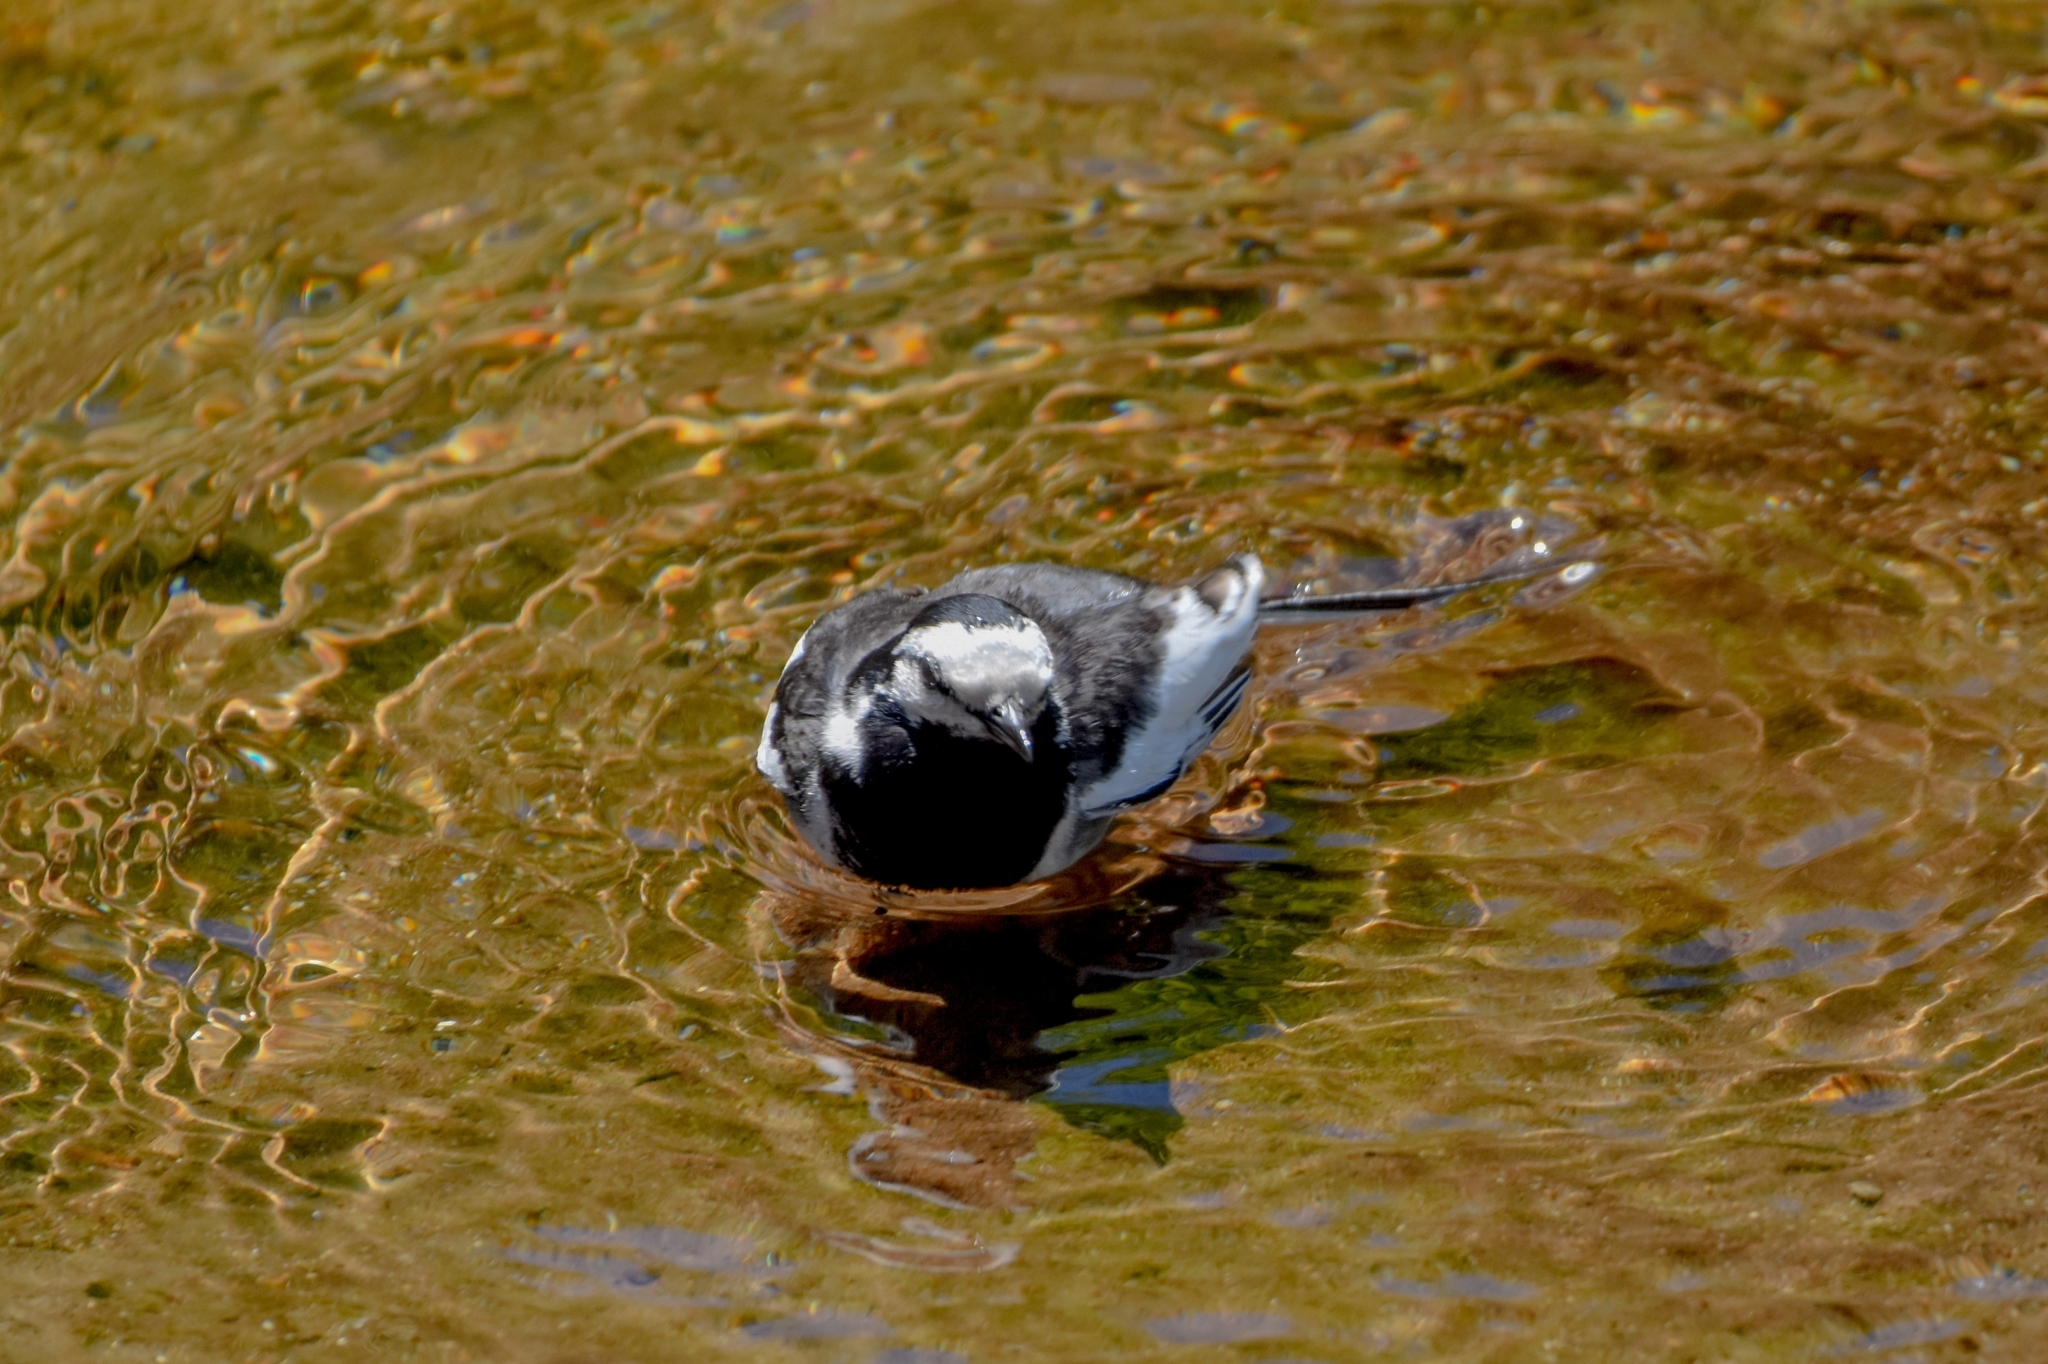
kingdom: Animalia
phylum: Chordata
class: Aves
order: Passeriformes
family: Motacillidae
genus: Motacilla
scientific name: Motacilla alba
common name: White wagtail
